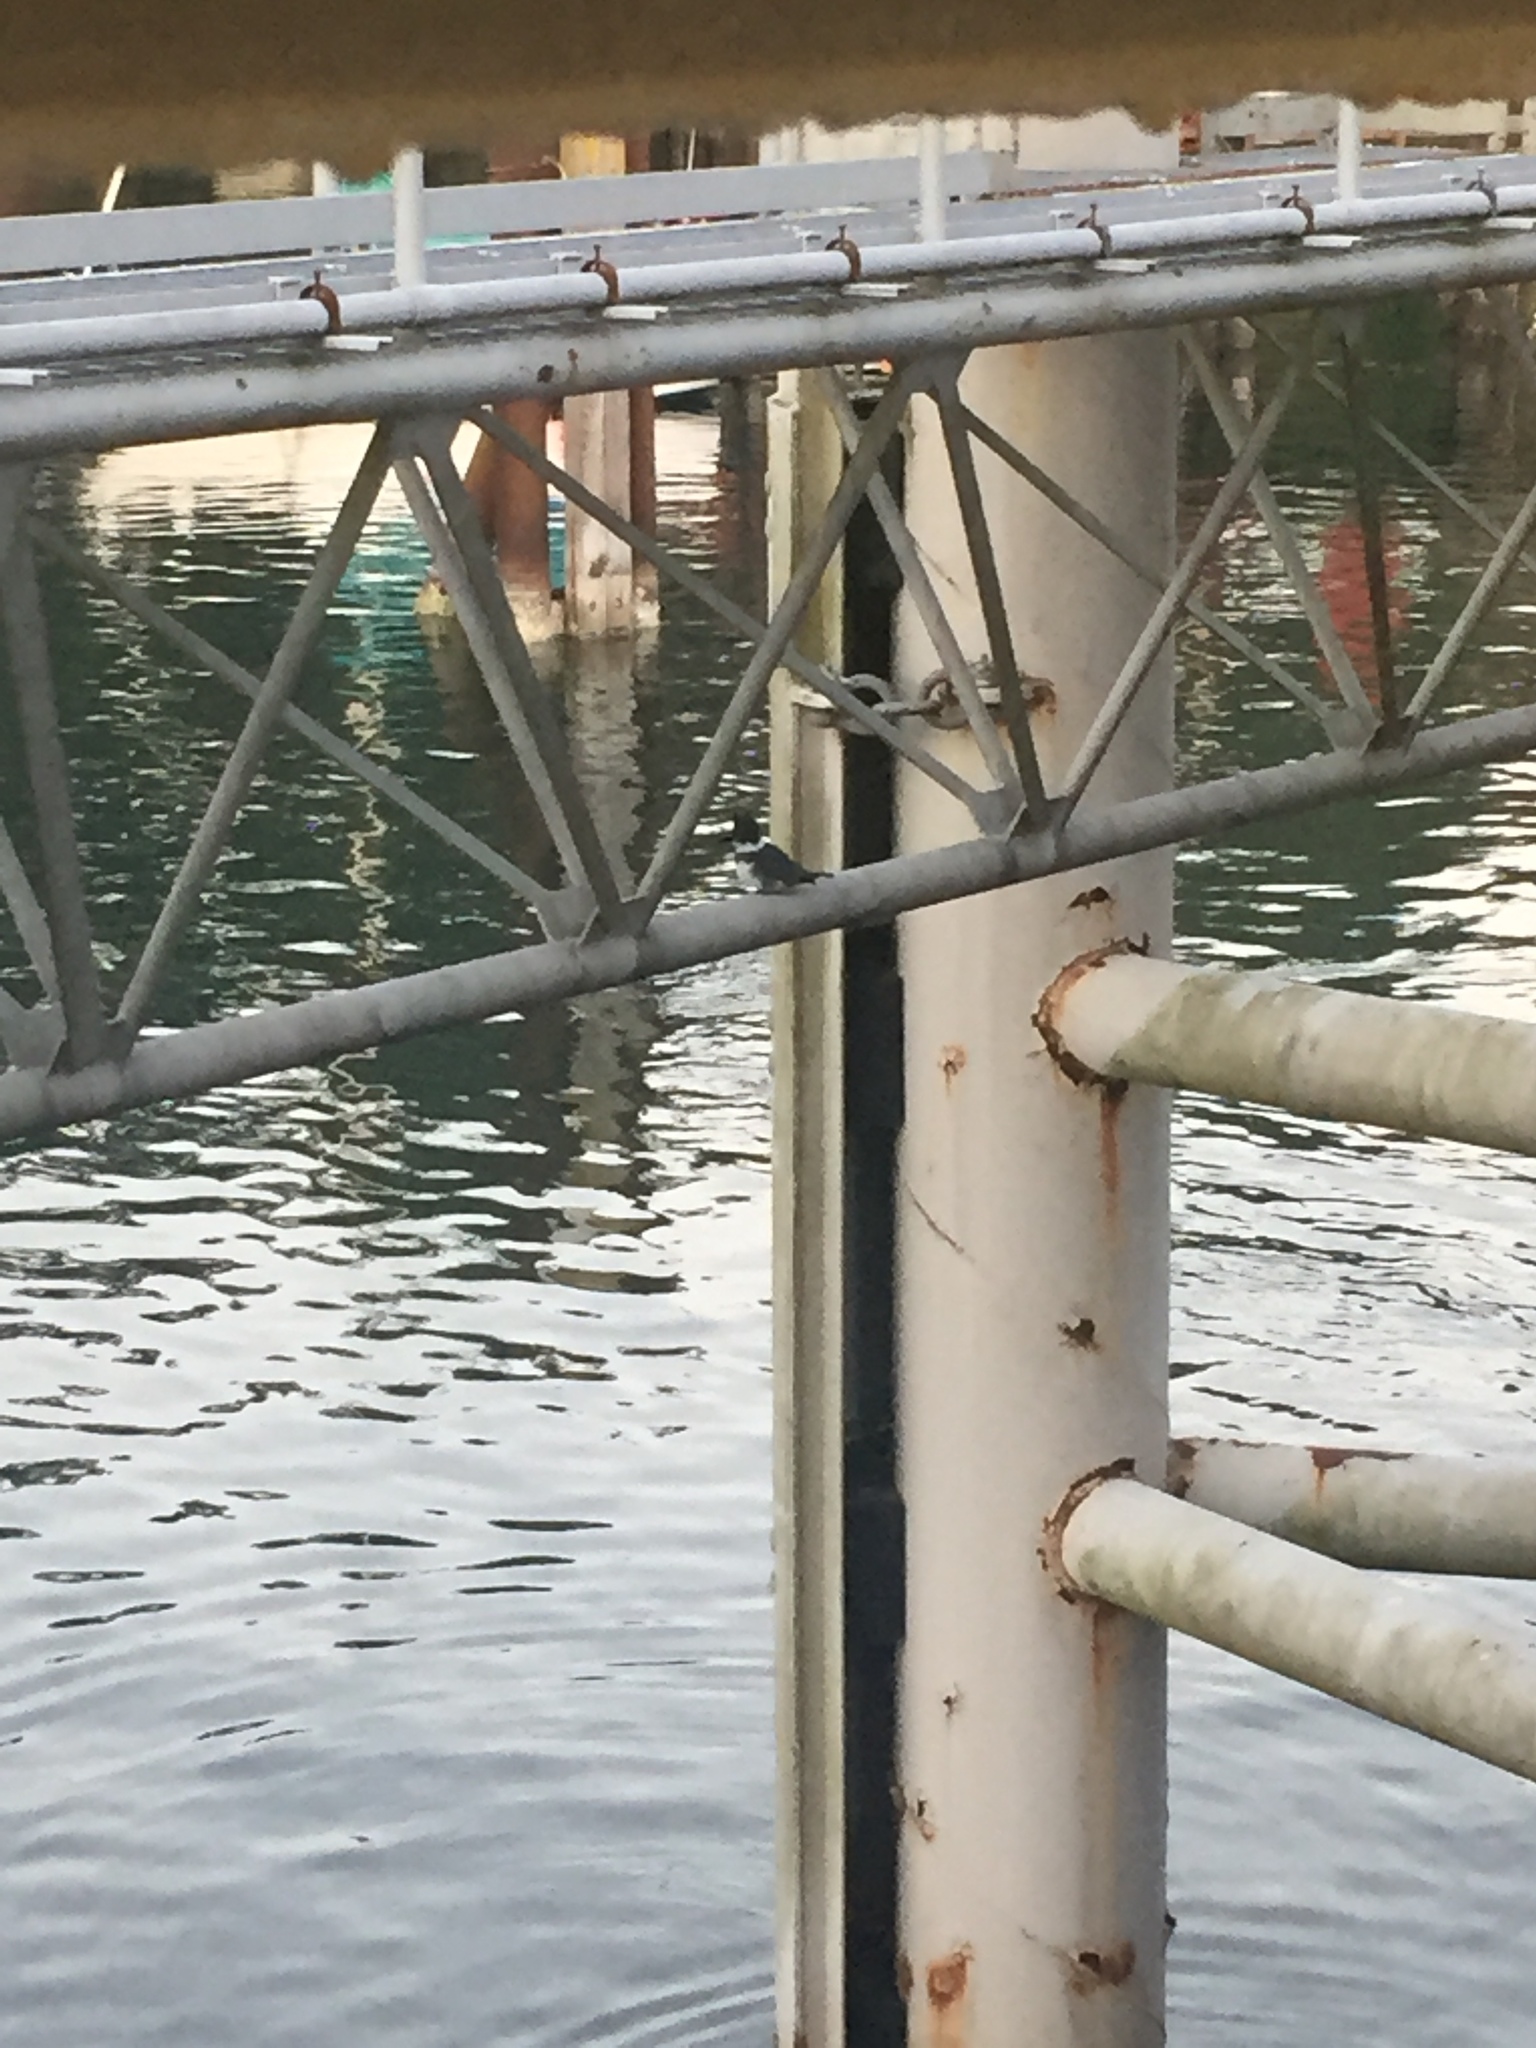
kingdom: Animalia
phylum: Chordata
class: Aves
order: Coraciiformes
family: Alcedinidae
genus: Megaceryle
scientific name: Megaceryle alcyon
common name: Belted kingfisher
